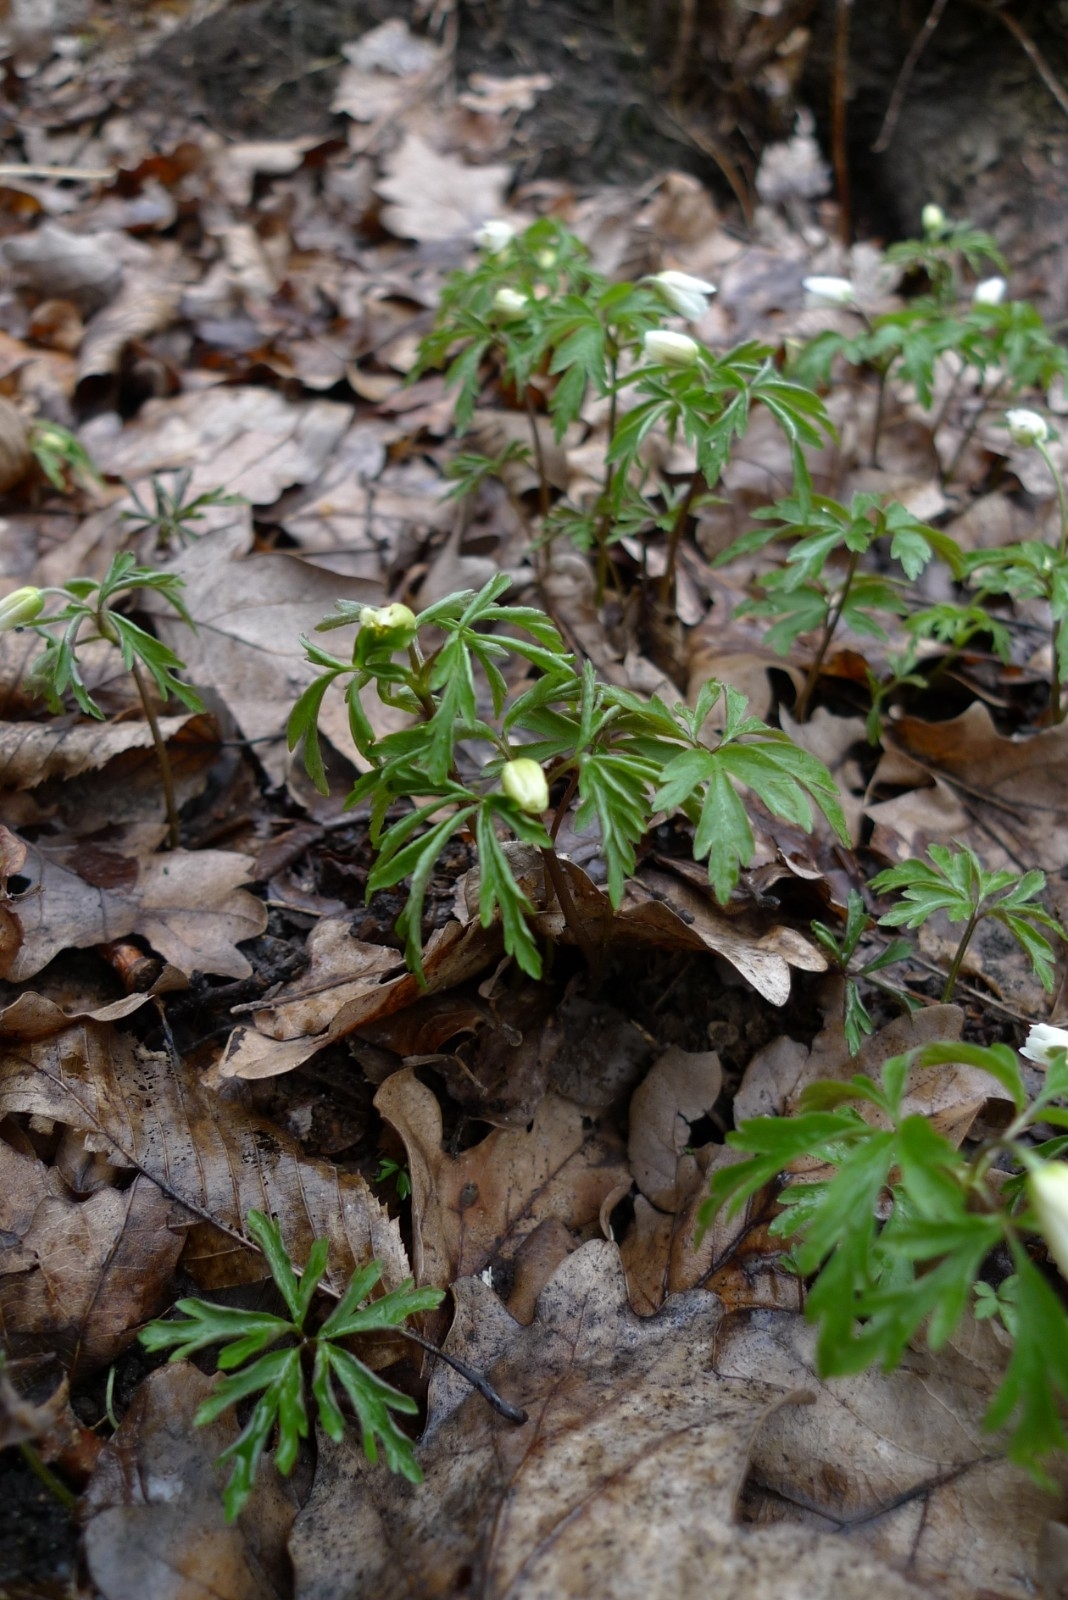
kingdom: Plantae
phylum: Tracheophyta
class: Magnoliopsida
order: Ranunculales
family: Ranunculaceae
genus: Anemone
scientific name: Anemone nemorosa
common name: Wood anemone
